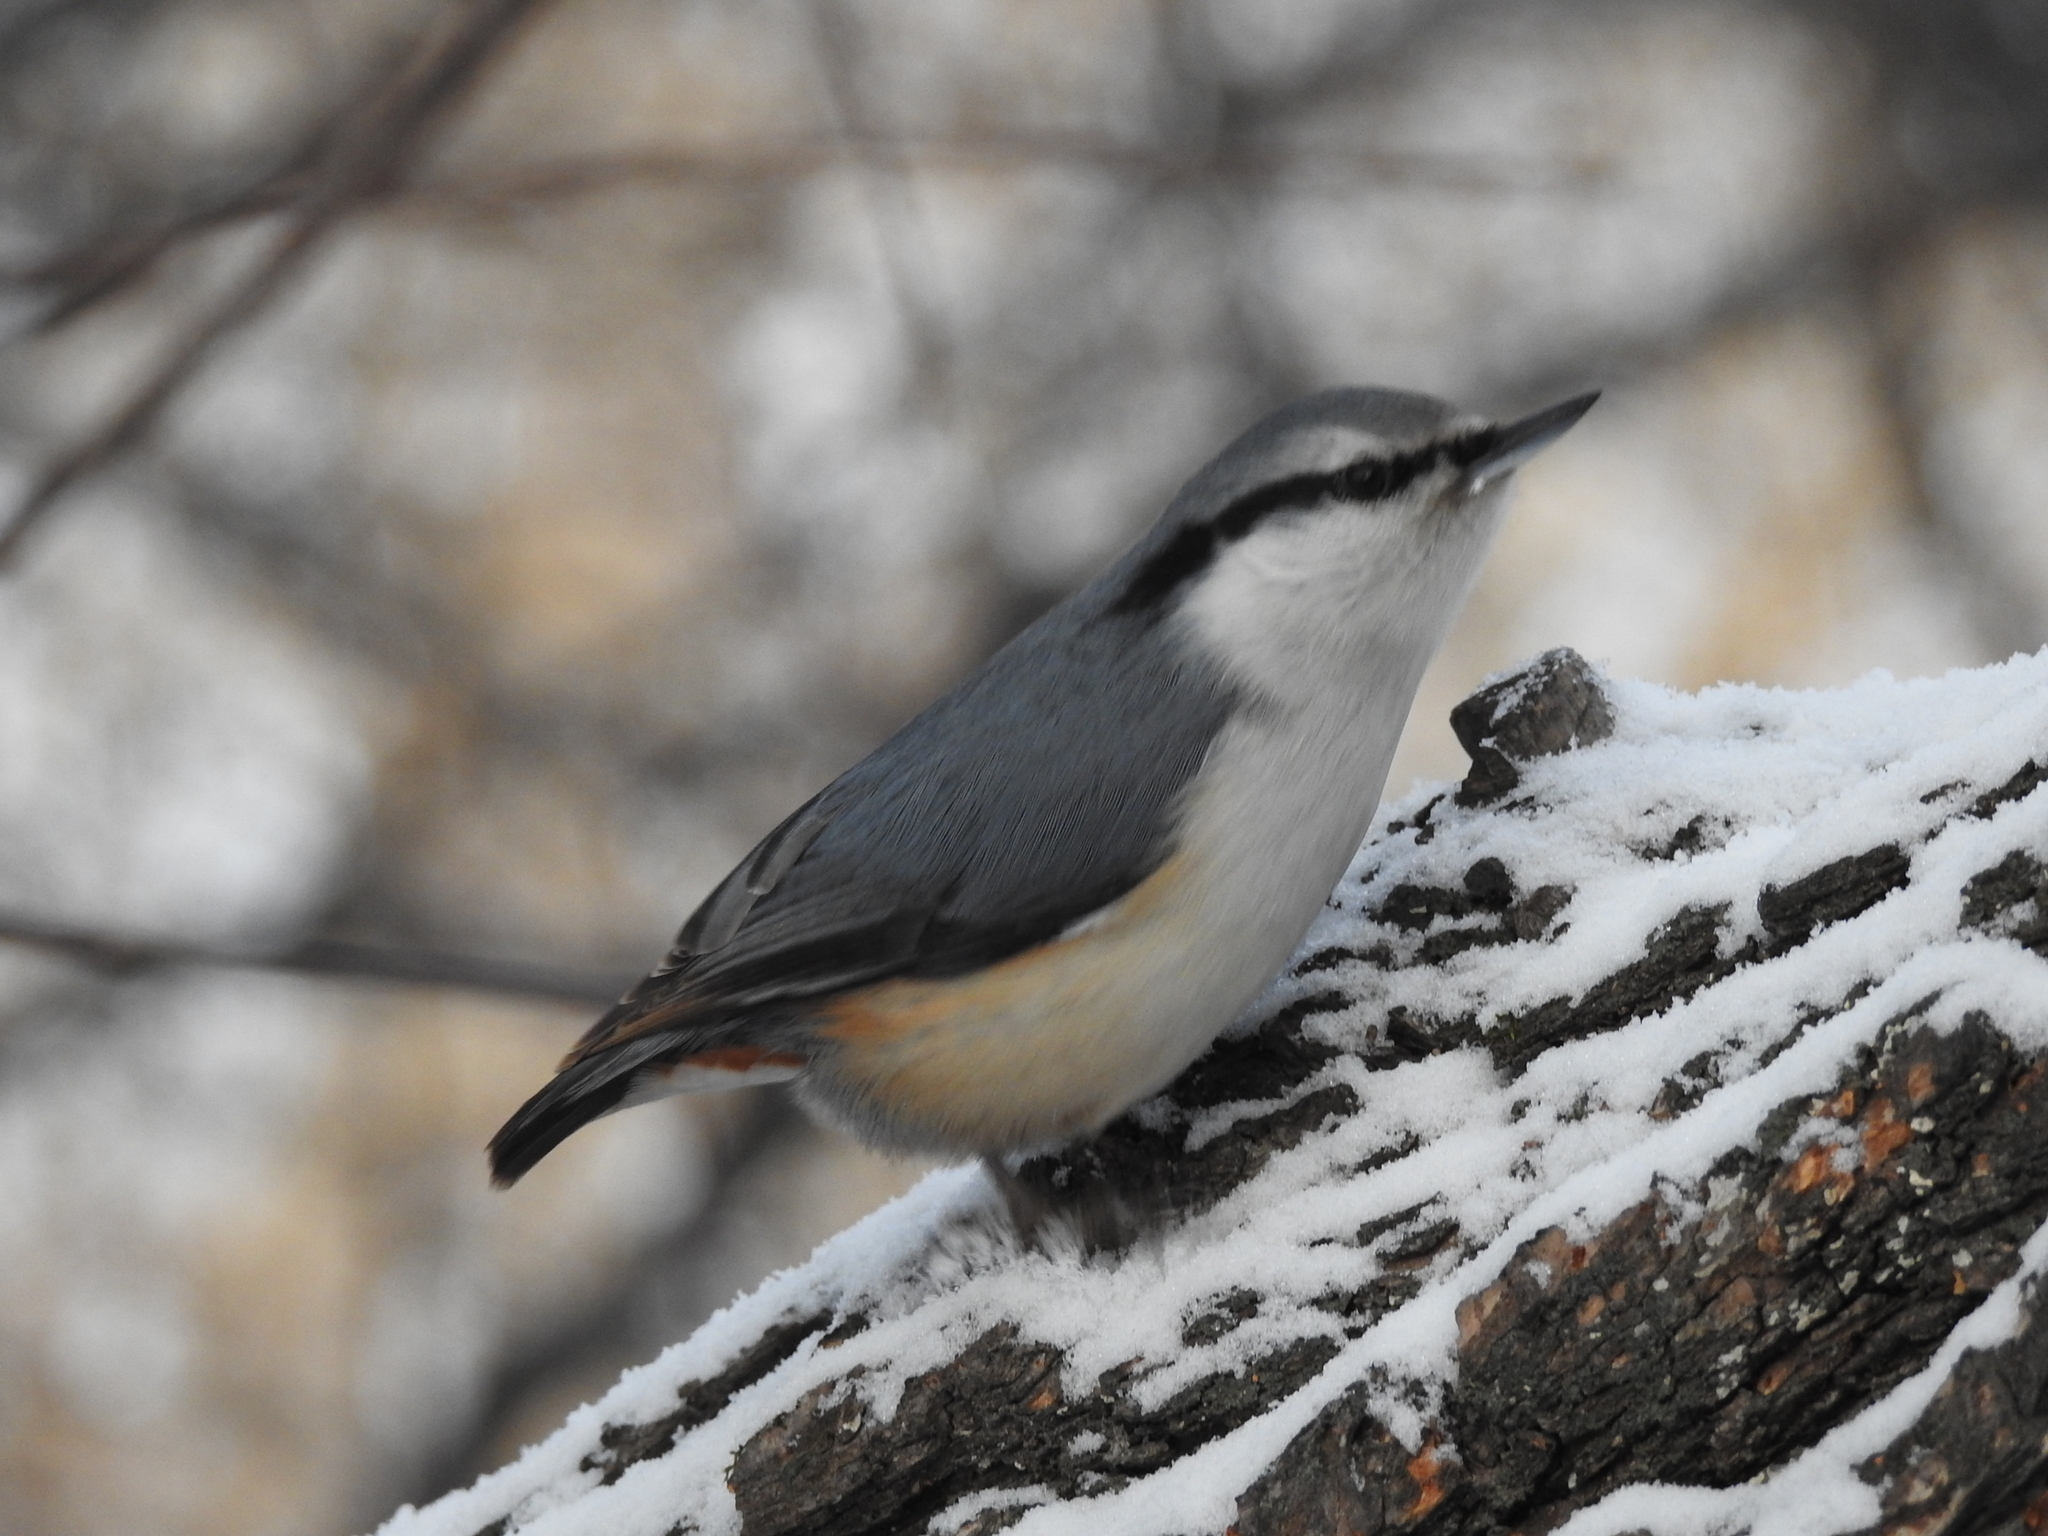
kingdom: Animalia
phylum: Chordata
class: Aves
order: Passeriformes
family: Sittidae
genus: Sitta
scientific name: Sitta europaea
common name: Eurasian nuthatch
